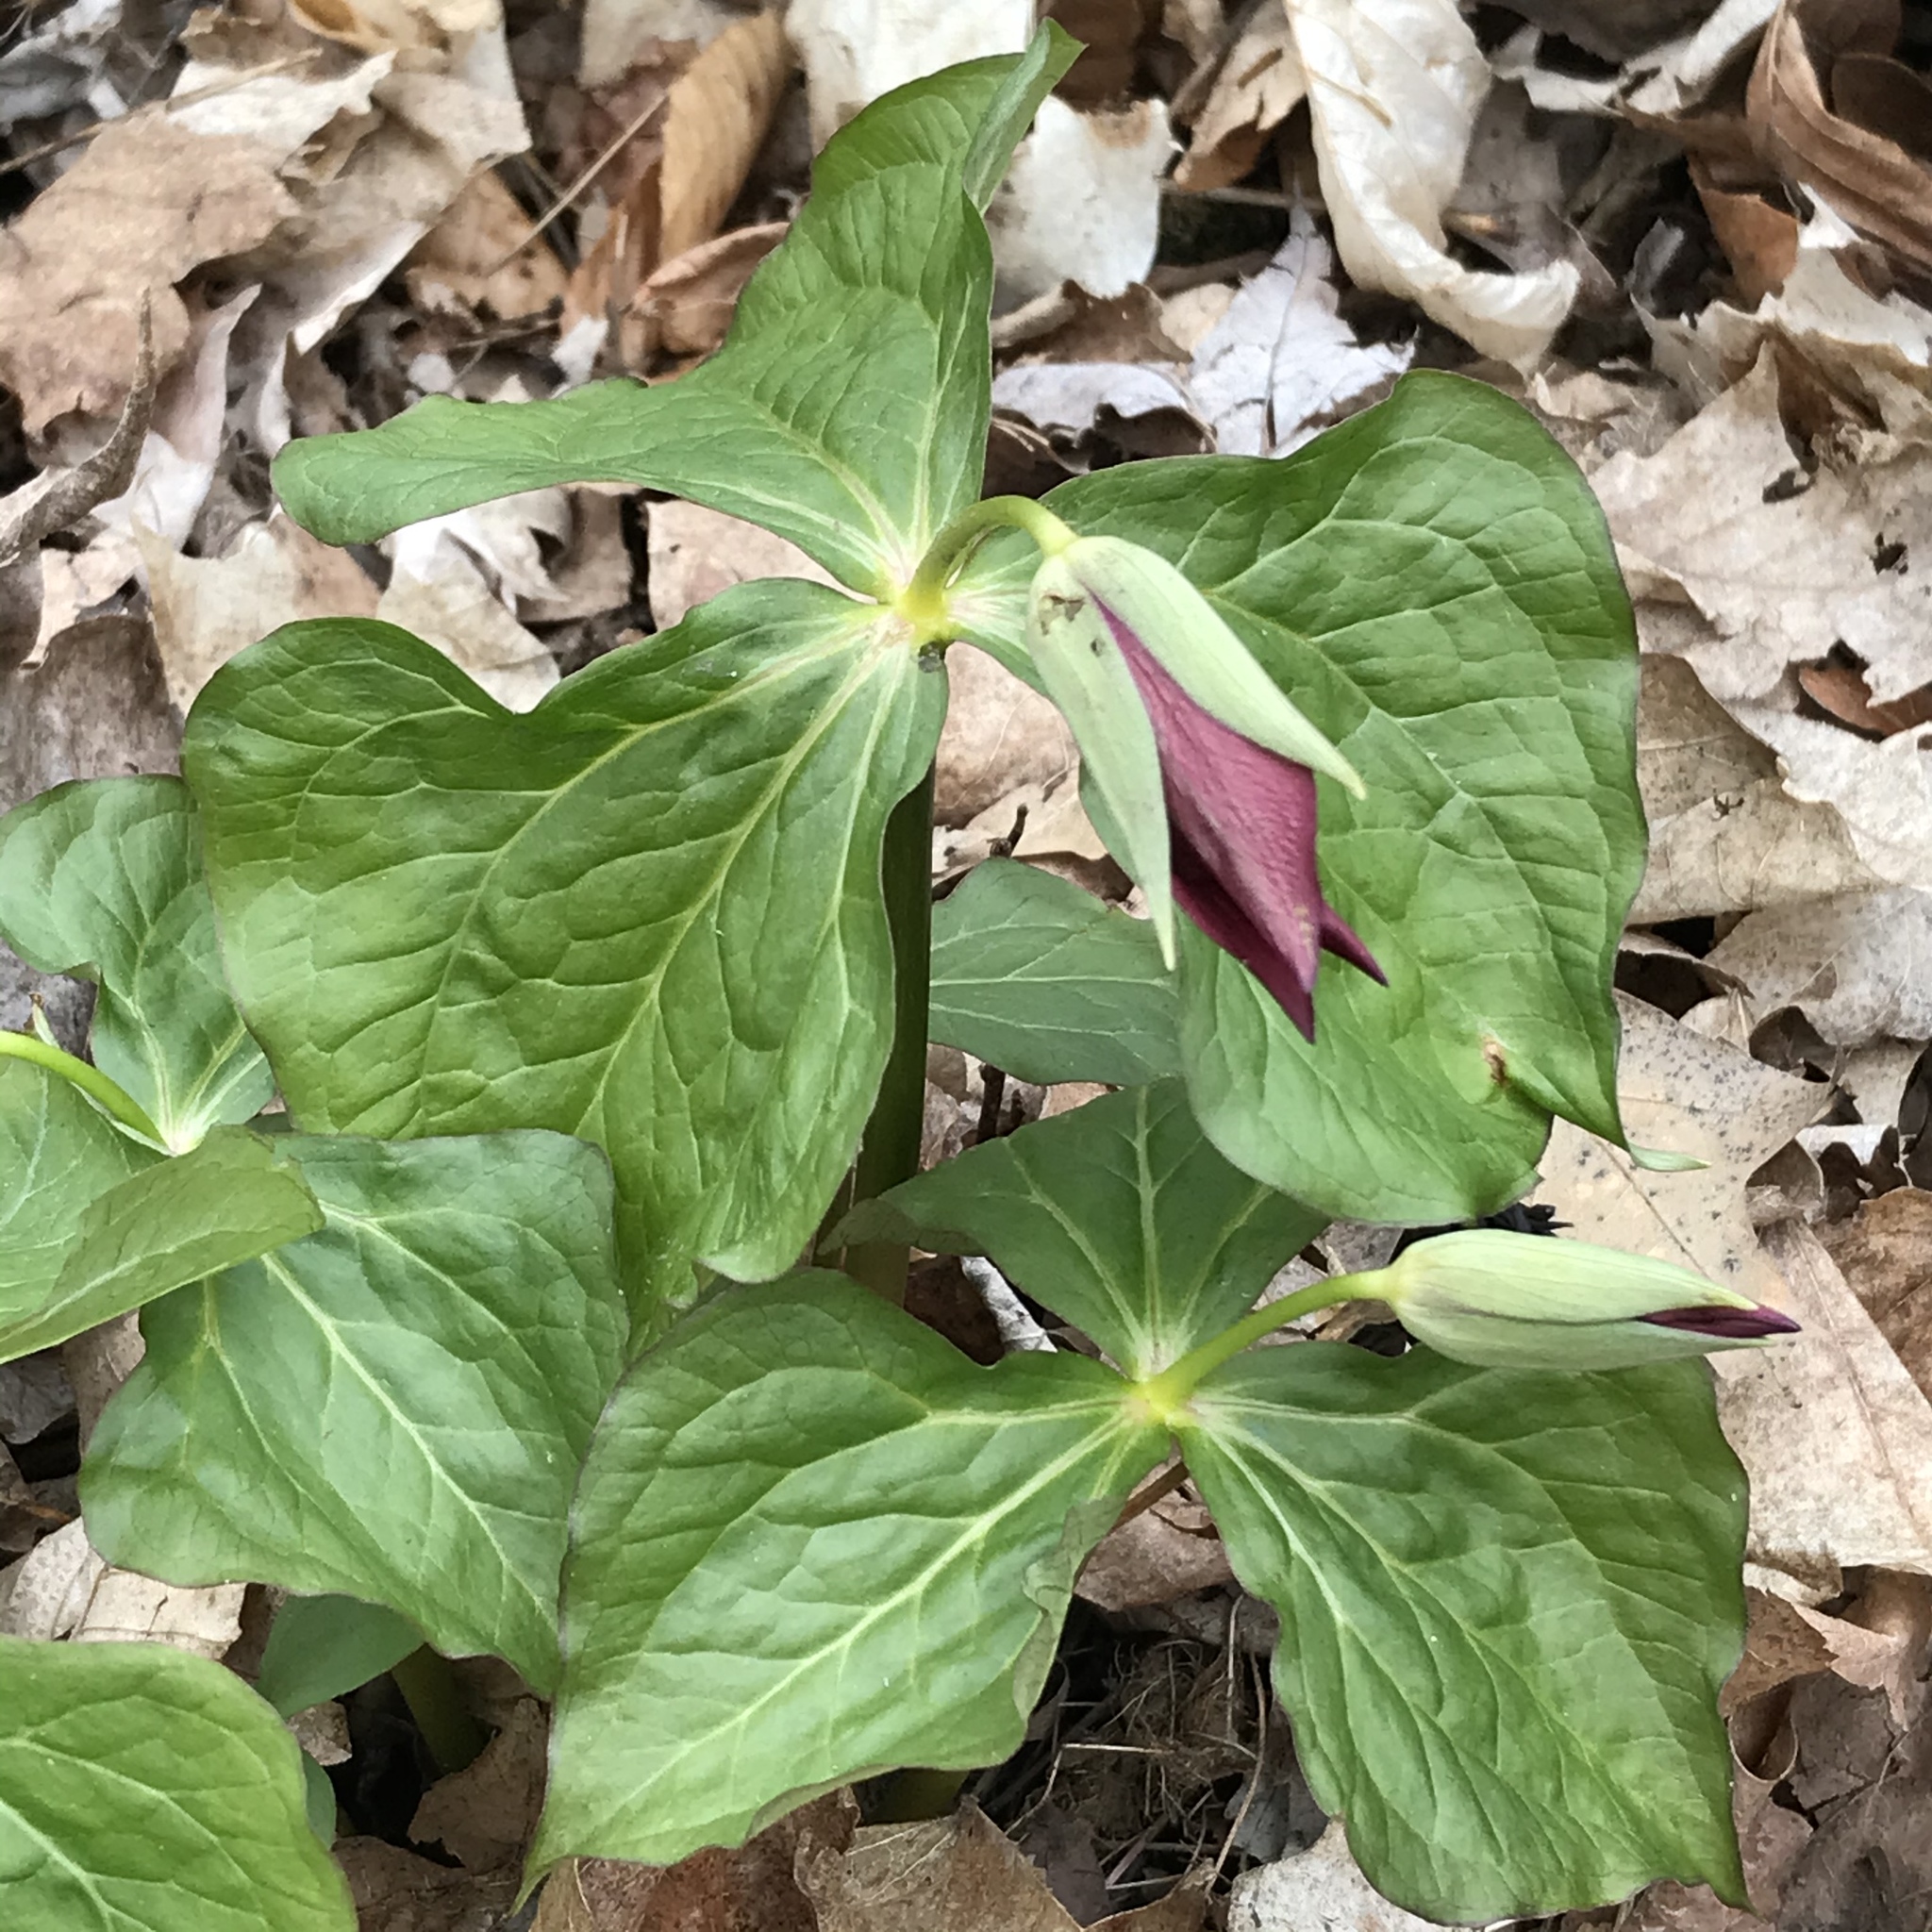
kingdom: Plantae
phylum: Tracheophyta
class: Liliopsida
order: Liliales
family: Melanthiaceae
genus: Trillium
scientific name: Trillium erectum
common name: Purple trillium
